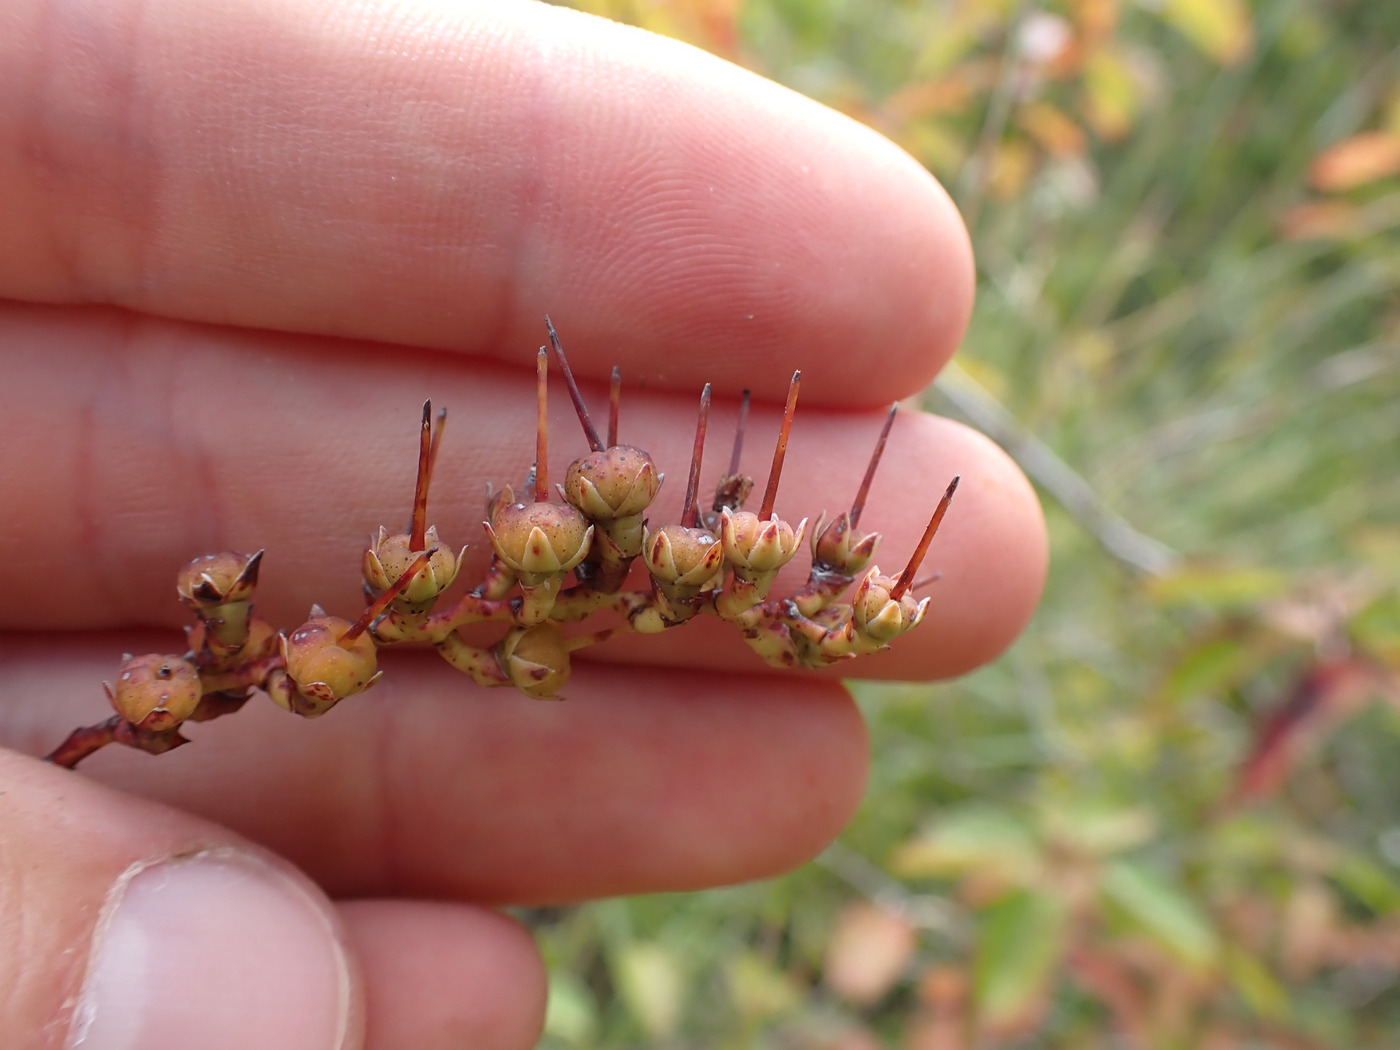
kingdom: Plantae
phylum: Tracheophyta
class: Magnoliopsida
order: Ericales
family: Ericaceae
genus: Eubotrys
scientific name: Eubotrys racemosa
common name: Fetterbush
